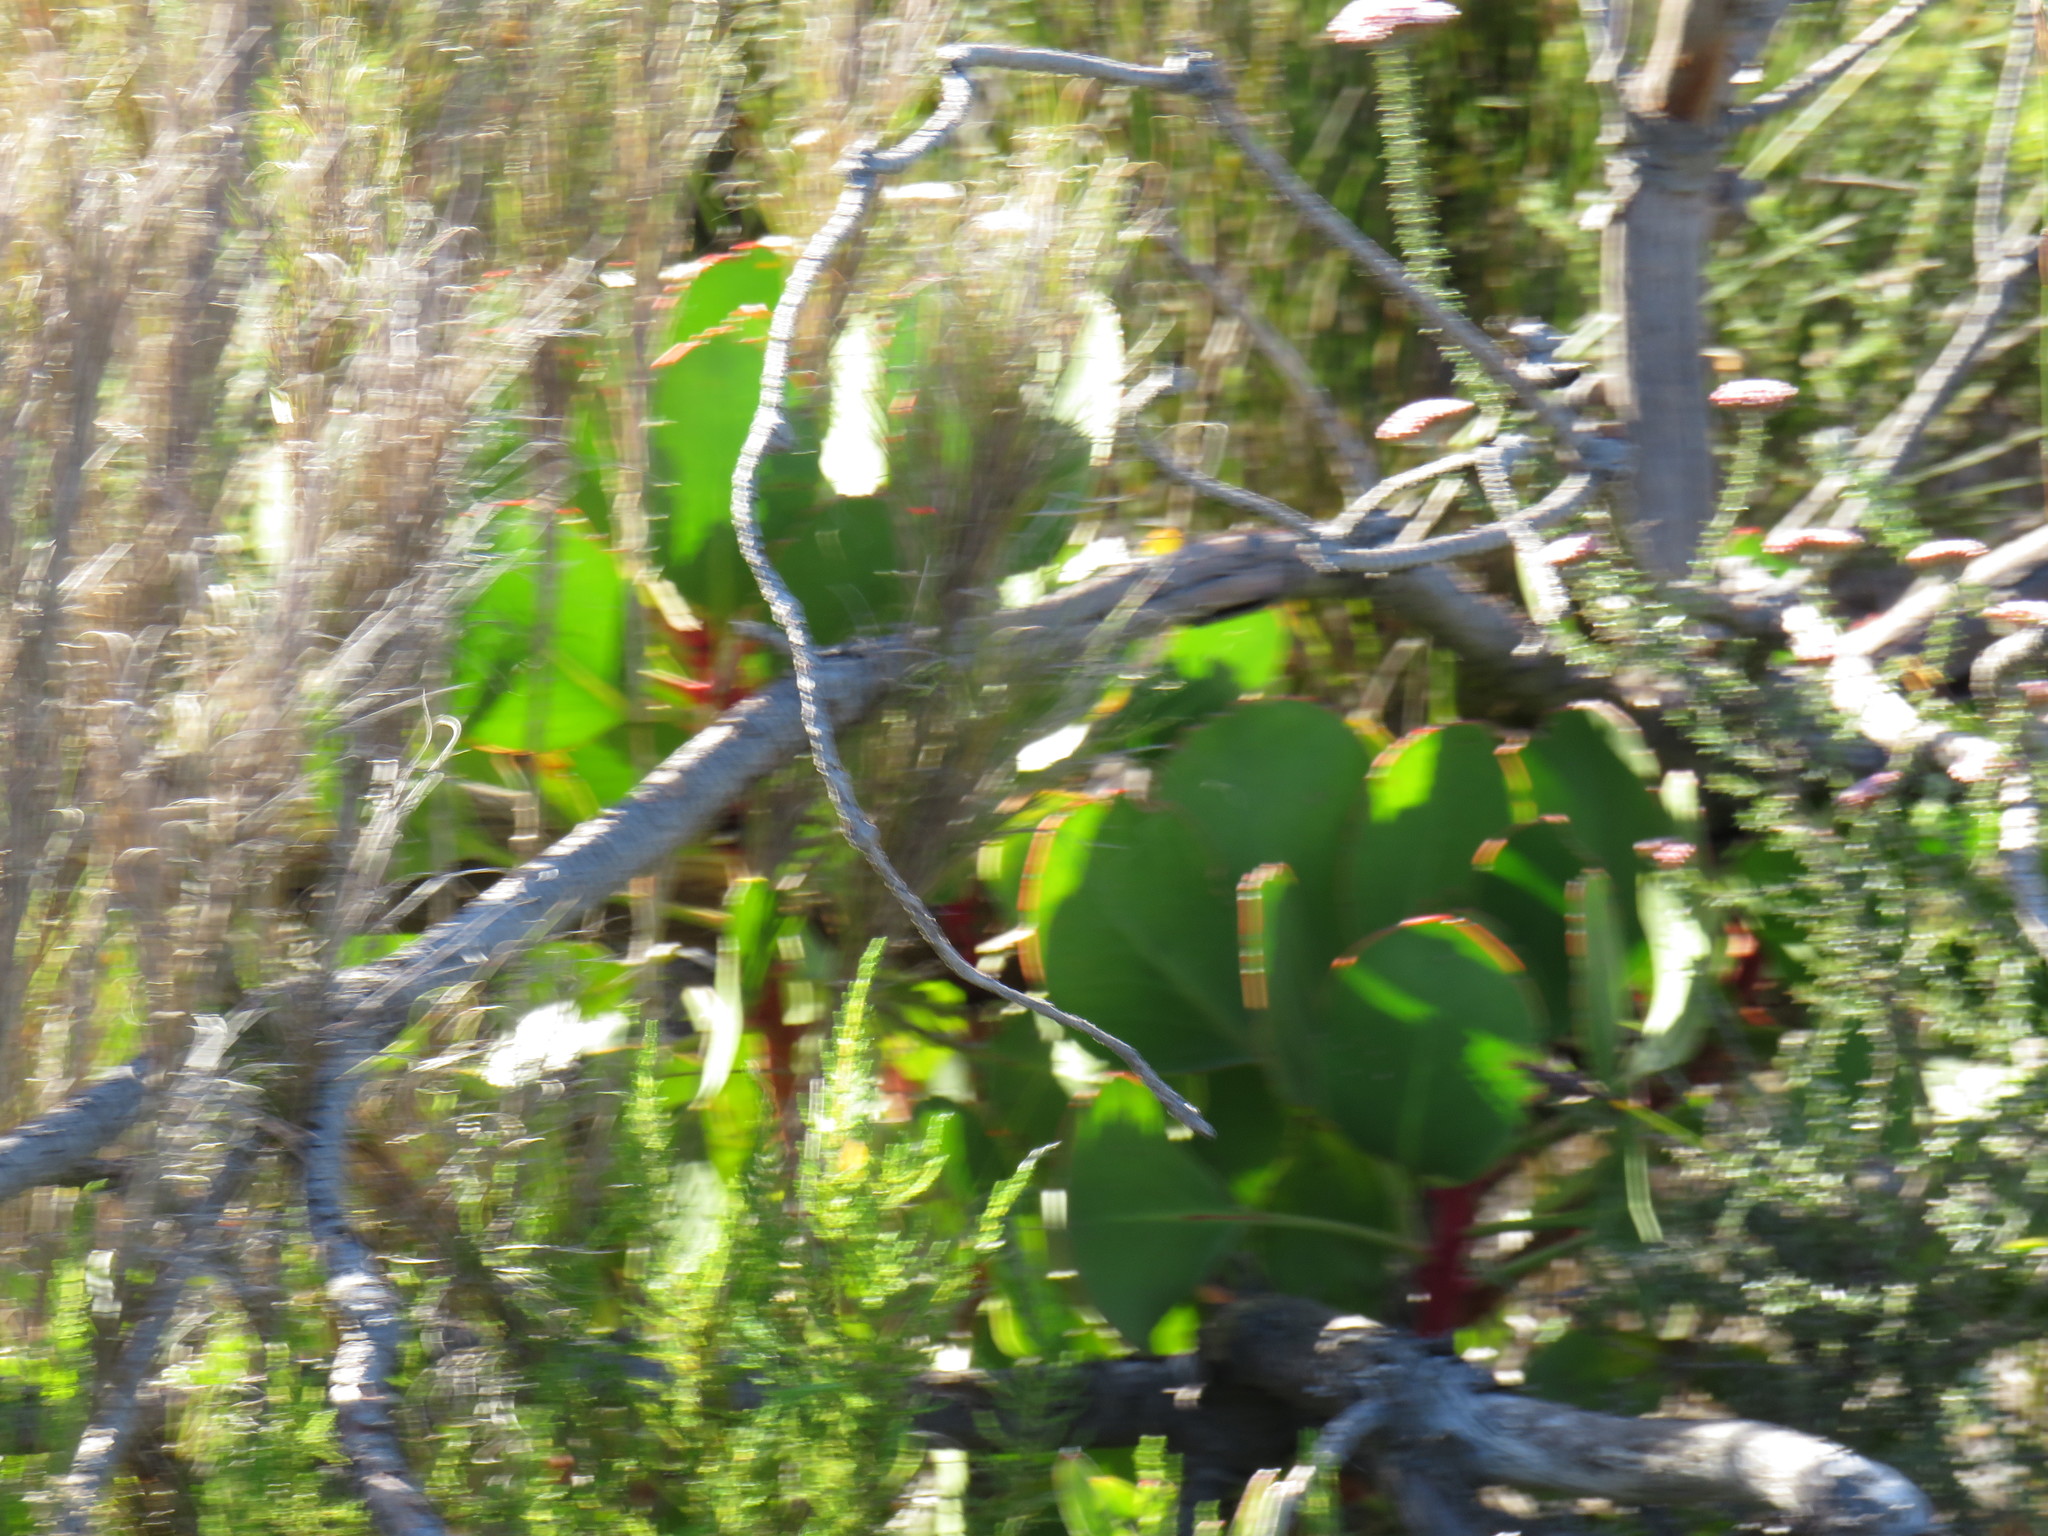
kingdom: Plantae
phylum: Tracheophyta
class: Magnoliopsida
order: Proteales
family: Proteaceae
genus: Protea
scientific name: Protea cynaroides
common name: King protea
